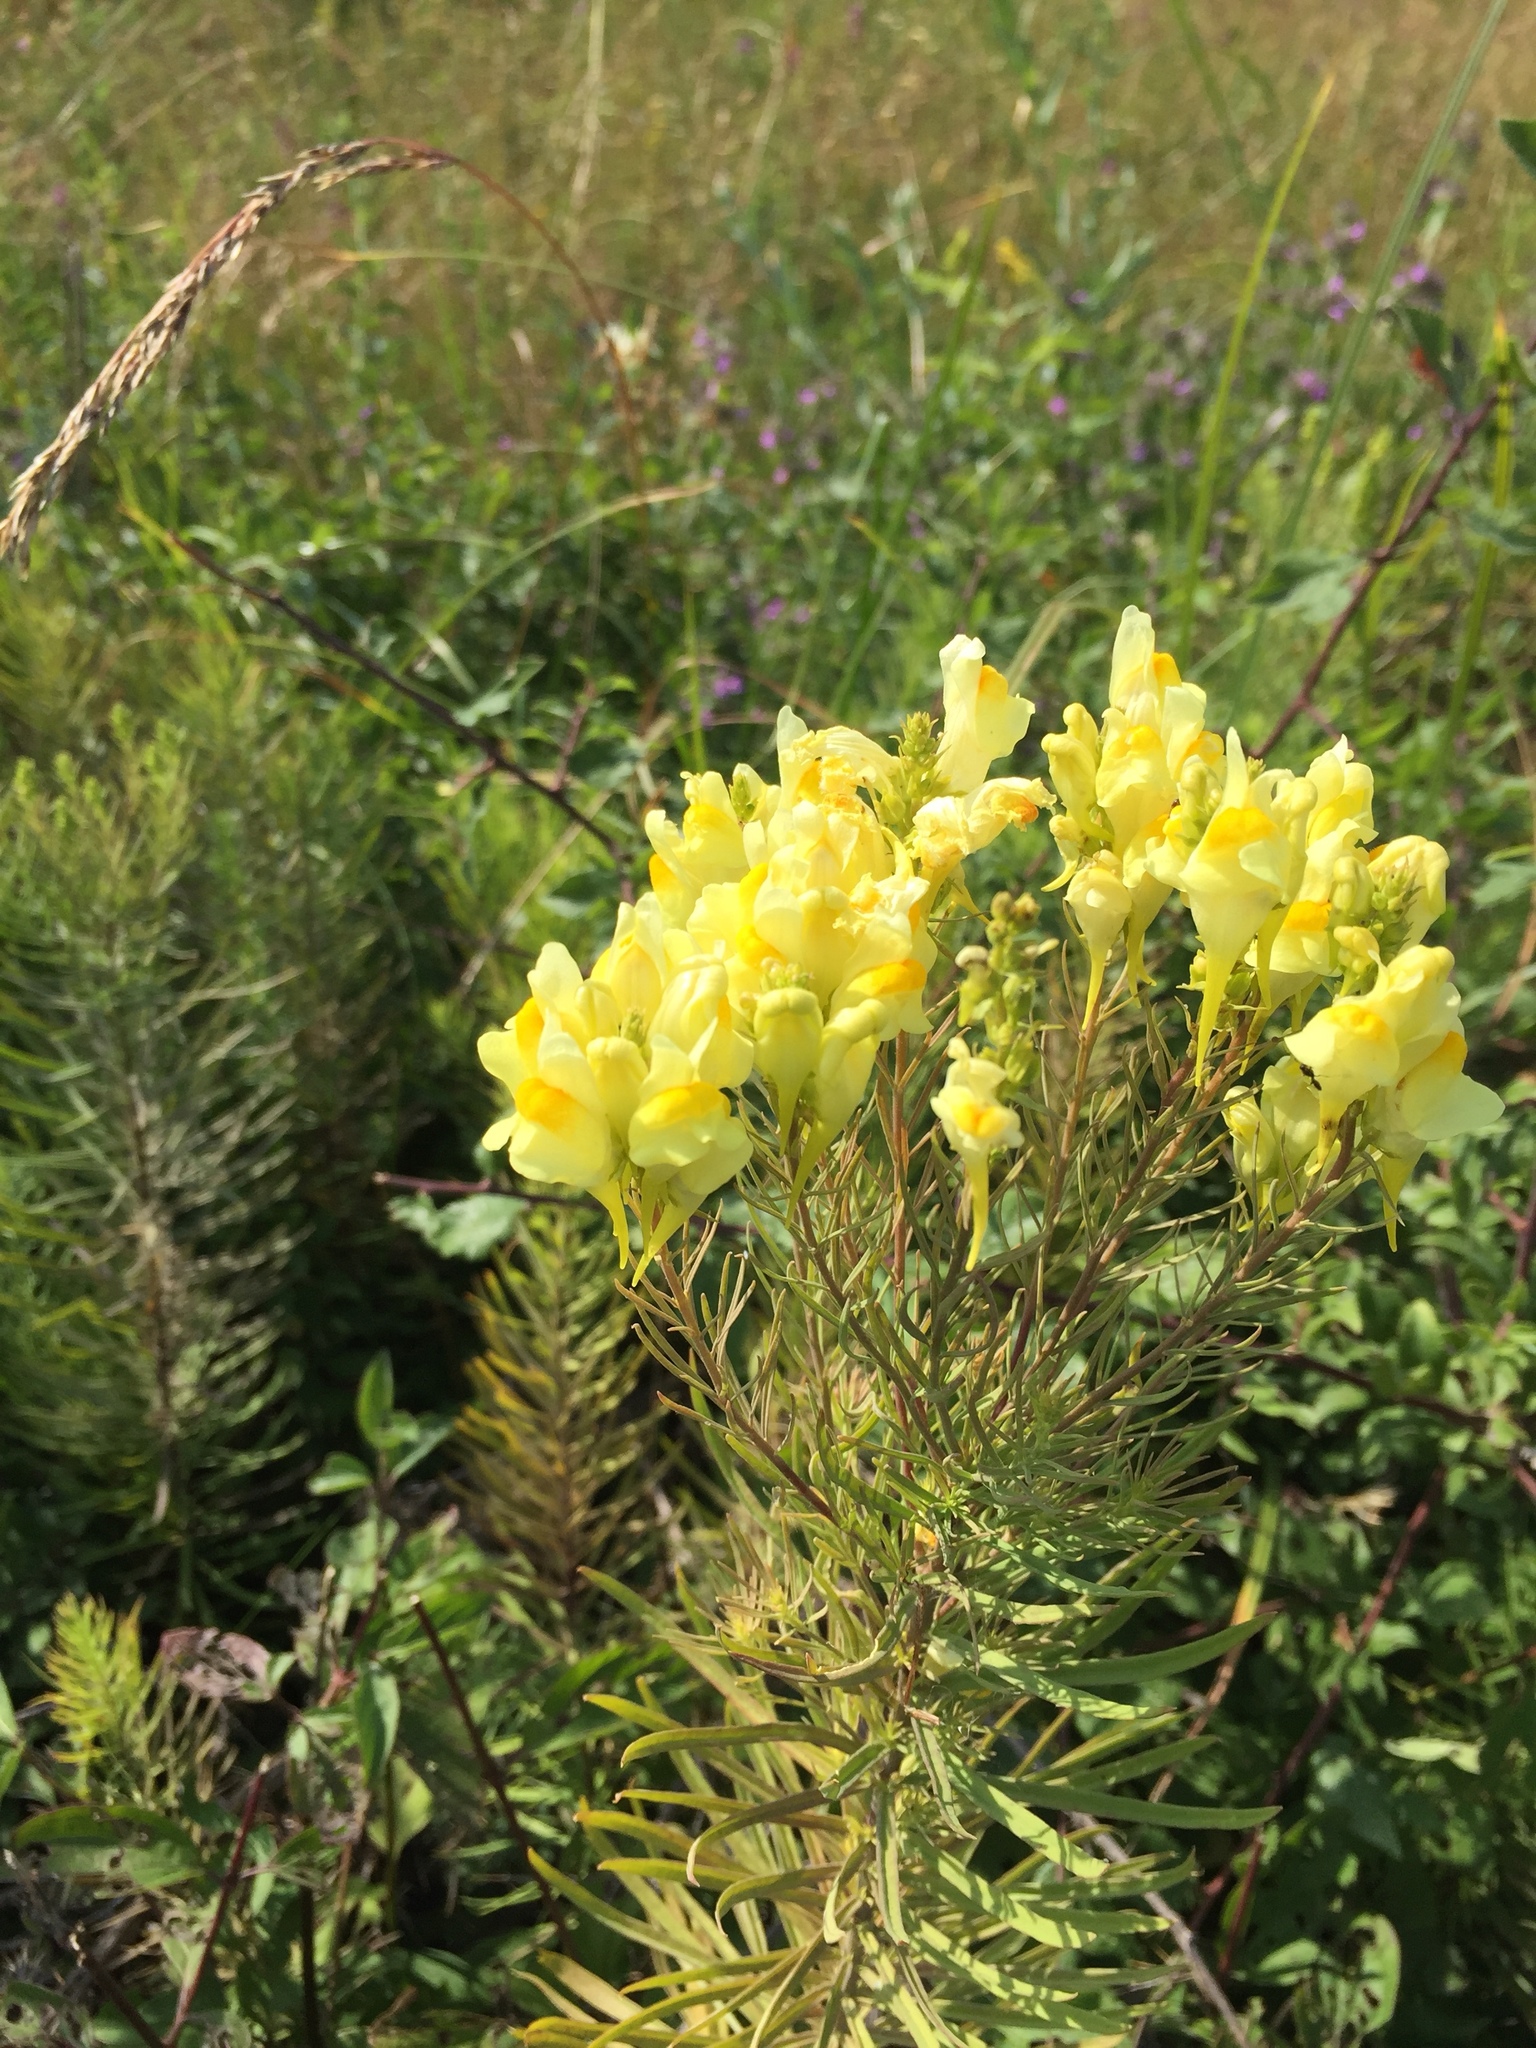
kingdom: Plantae
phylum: Tracheophyta
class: Magnoliopsida
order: Lamiales
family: Plantaginaceae
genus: Linaria
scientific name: Linaria vulgaris
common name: Butter and eggs
